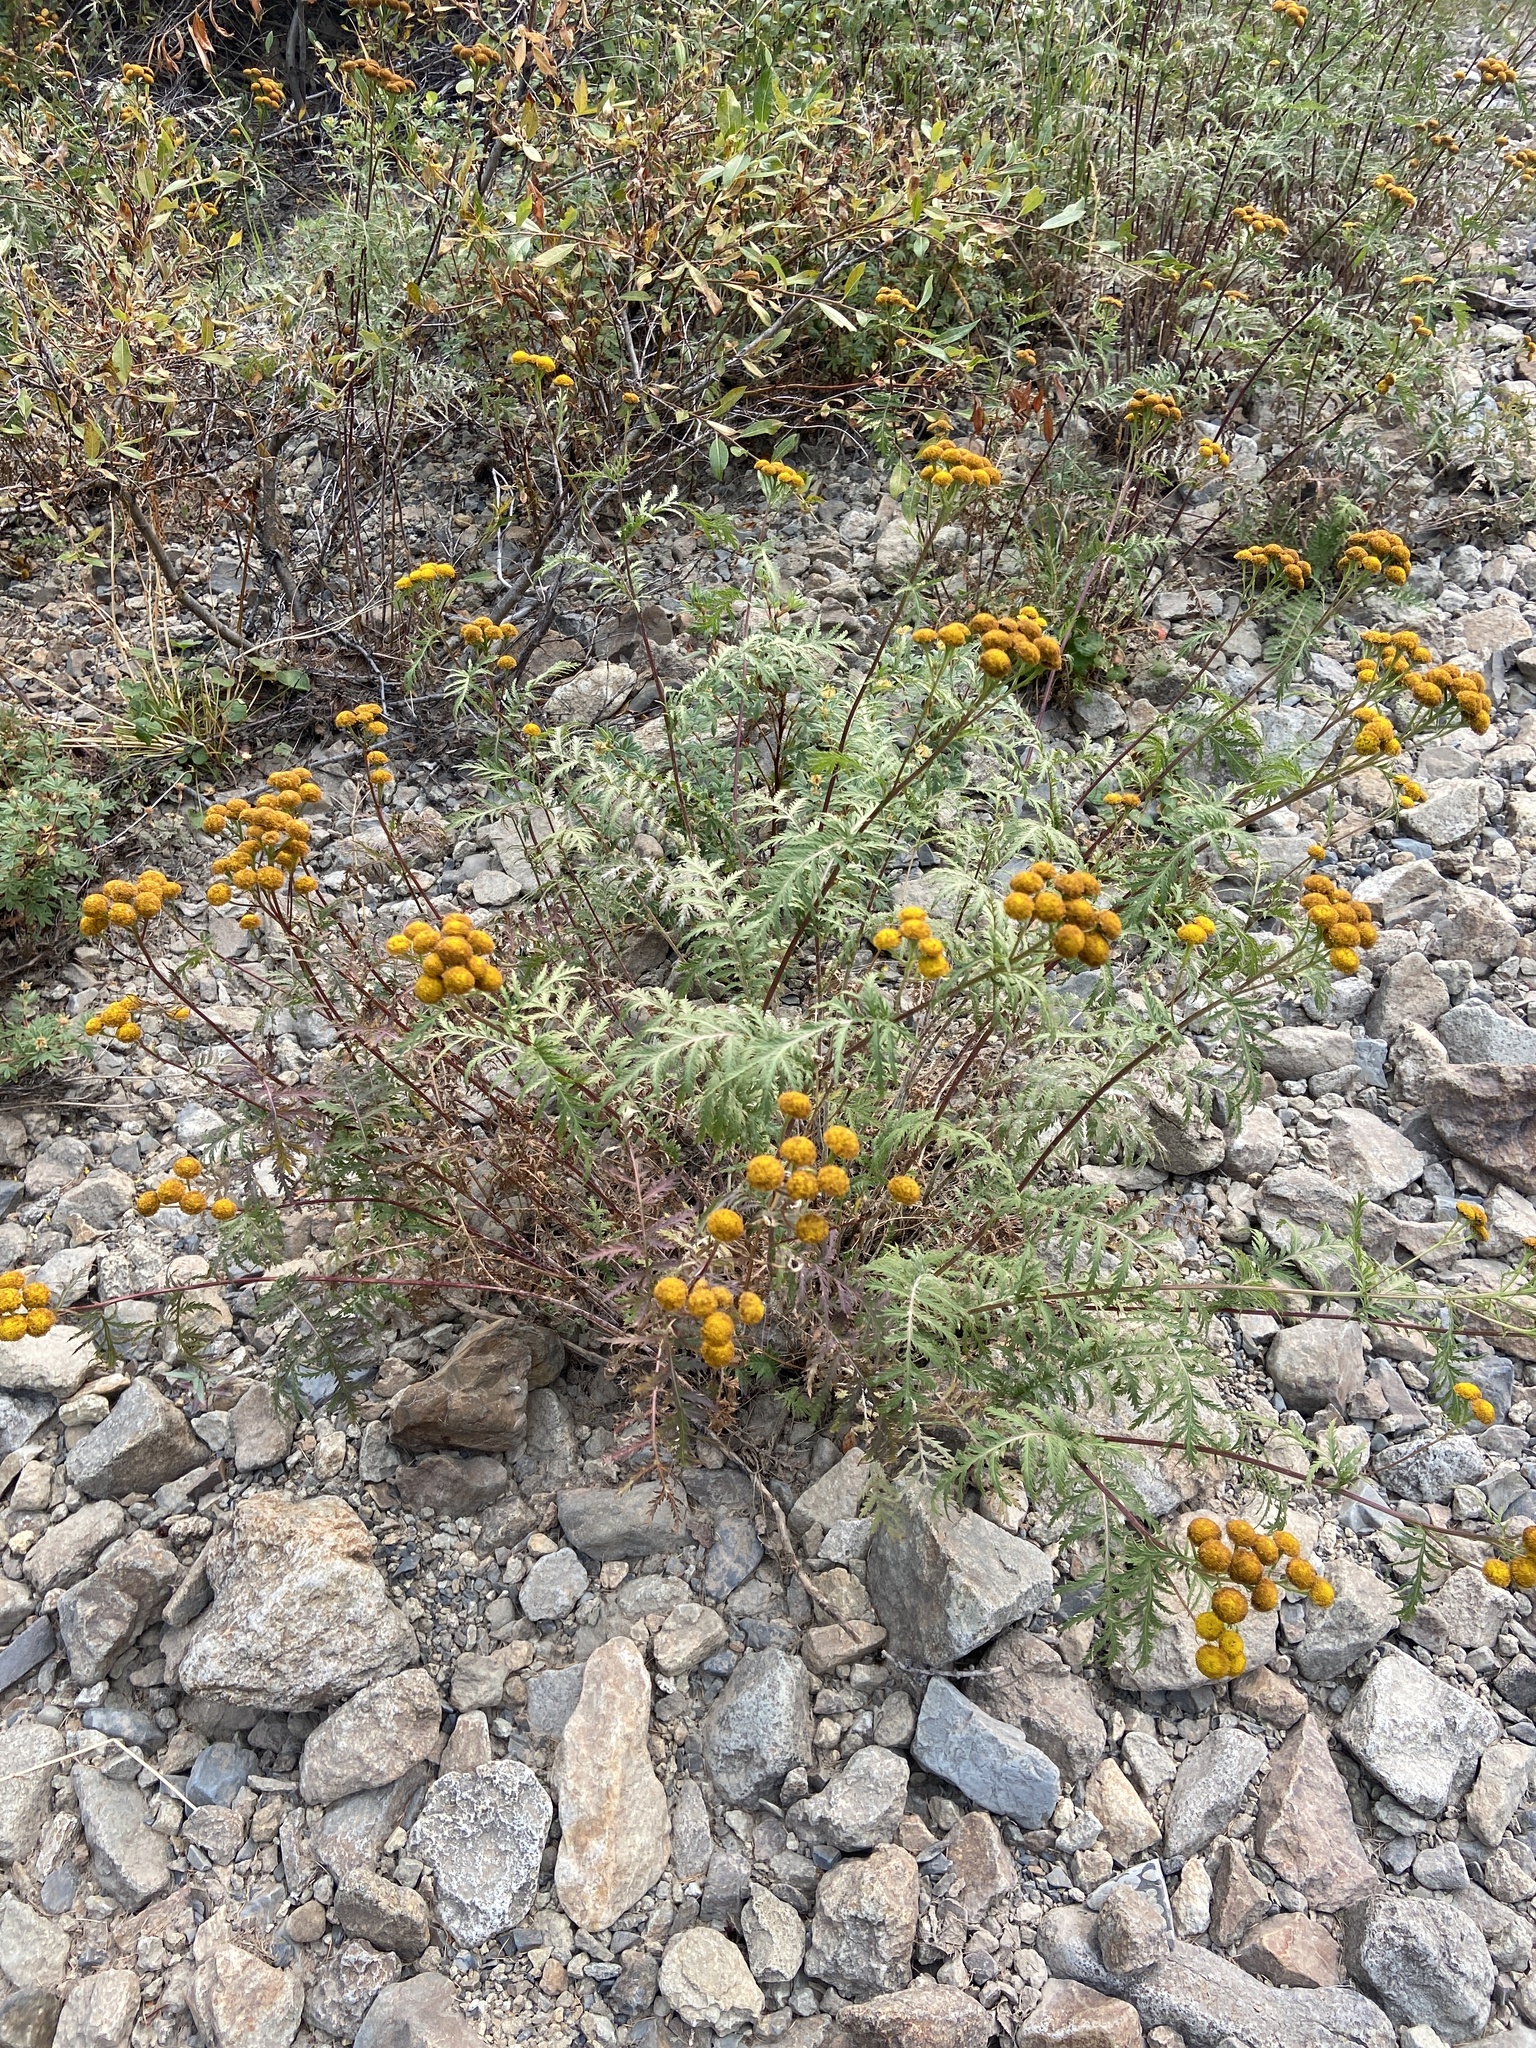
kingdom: Plantae
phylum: Tracheophyta
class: Magnoliopsida
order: Asterales
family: Asteraceae
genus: Tanacetum
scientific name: Tanacetum vulgare
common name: Common tansy
